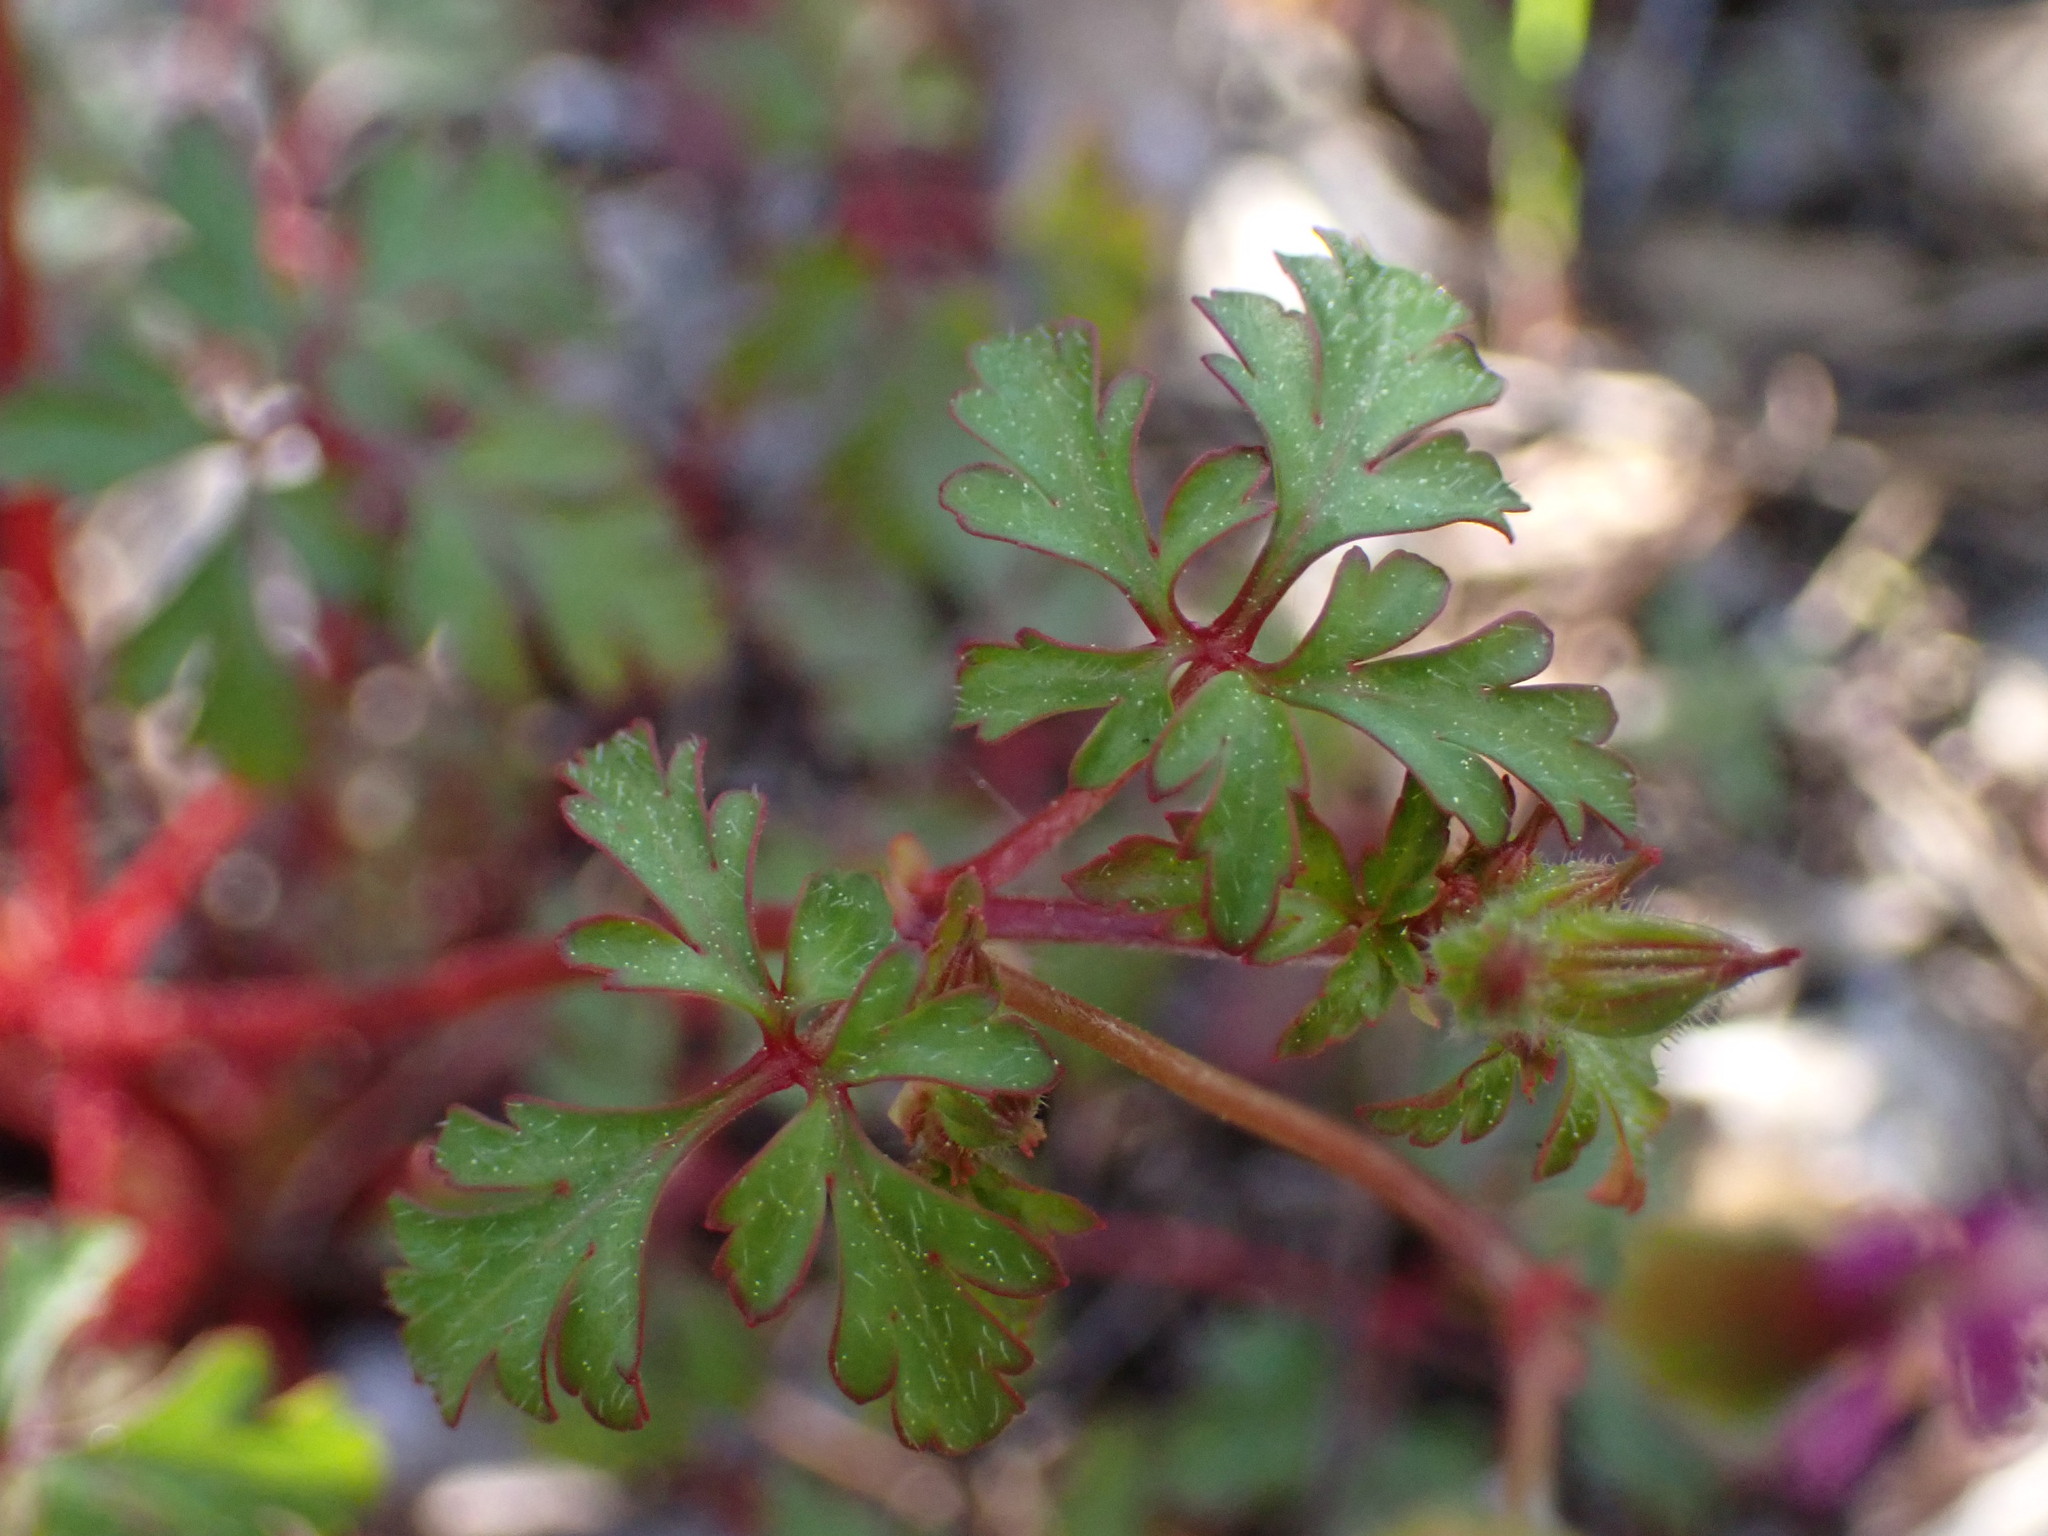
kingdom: Plantae
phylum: Tracheophyta
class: Magnoliopsida
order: Geraniales
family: Geraniaceae
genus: Geranium
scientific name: Geranium purpureum
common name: Little-robin
